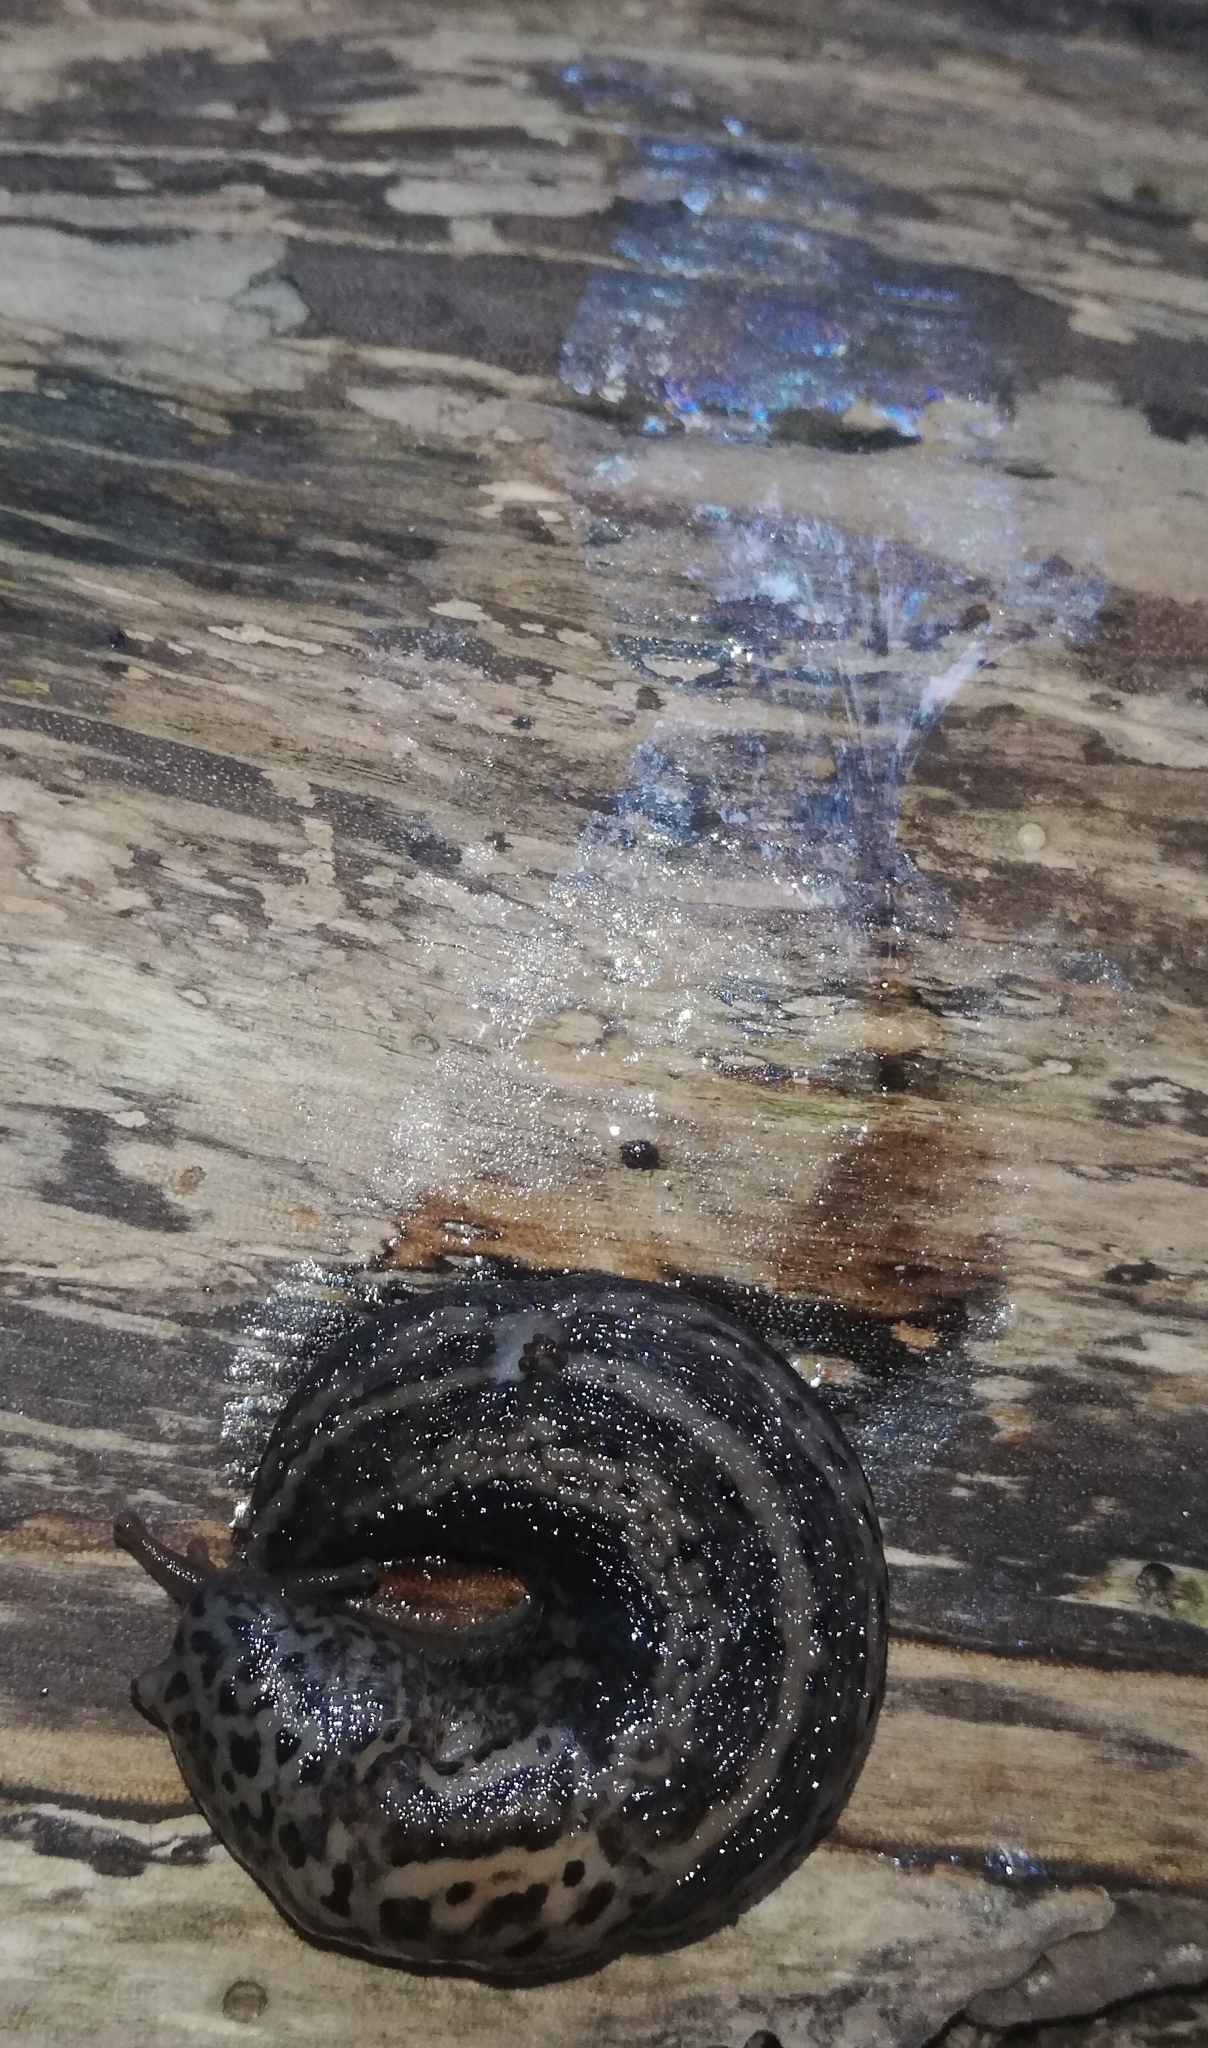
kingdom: Animalia
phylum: Mollusca
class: Gastropoda
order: Stylommatophora
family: Limacidae
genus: Limax
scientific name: Limax maximus
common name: Great grey slug
